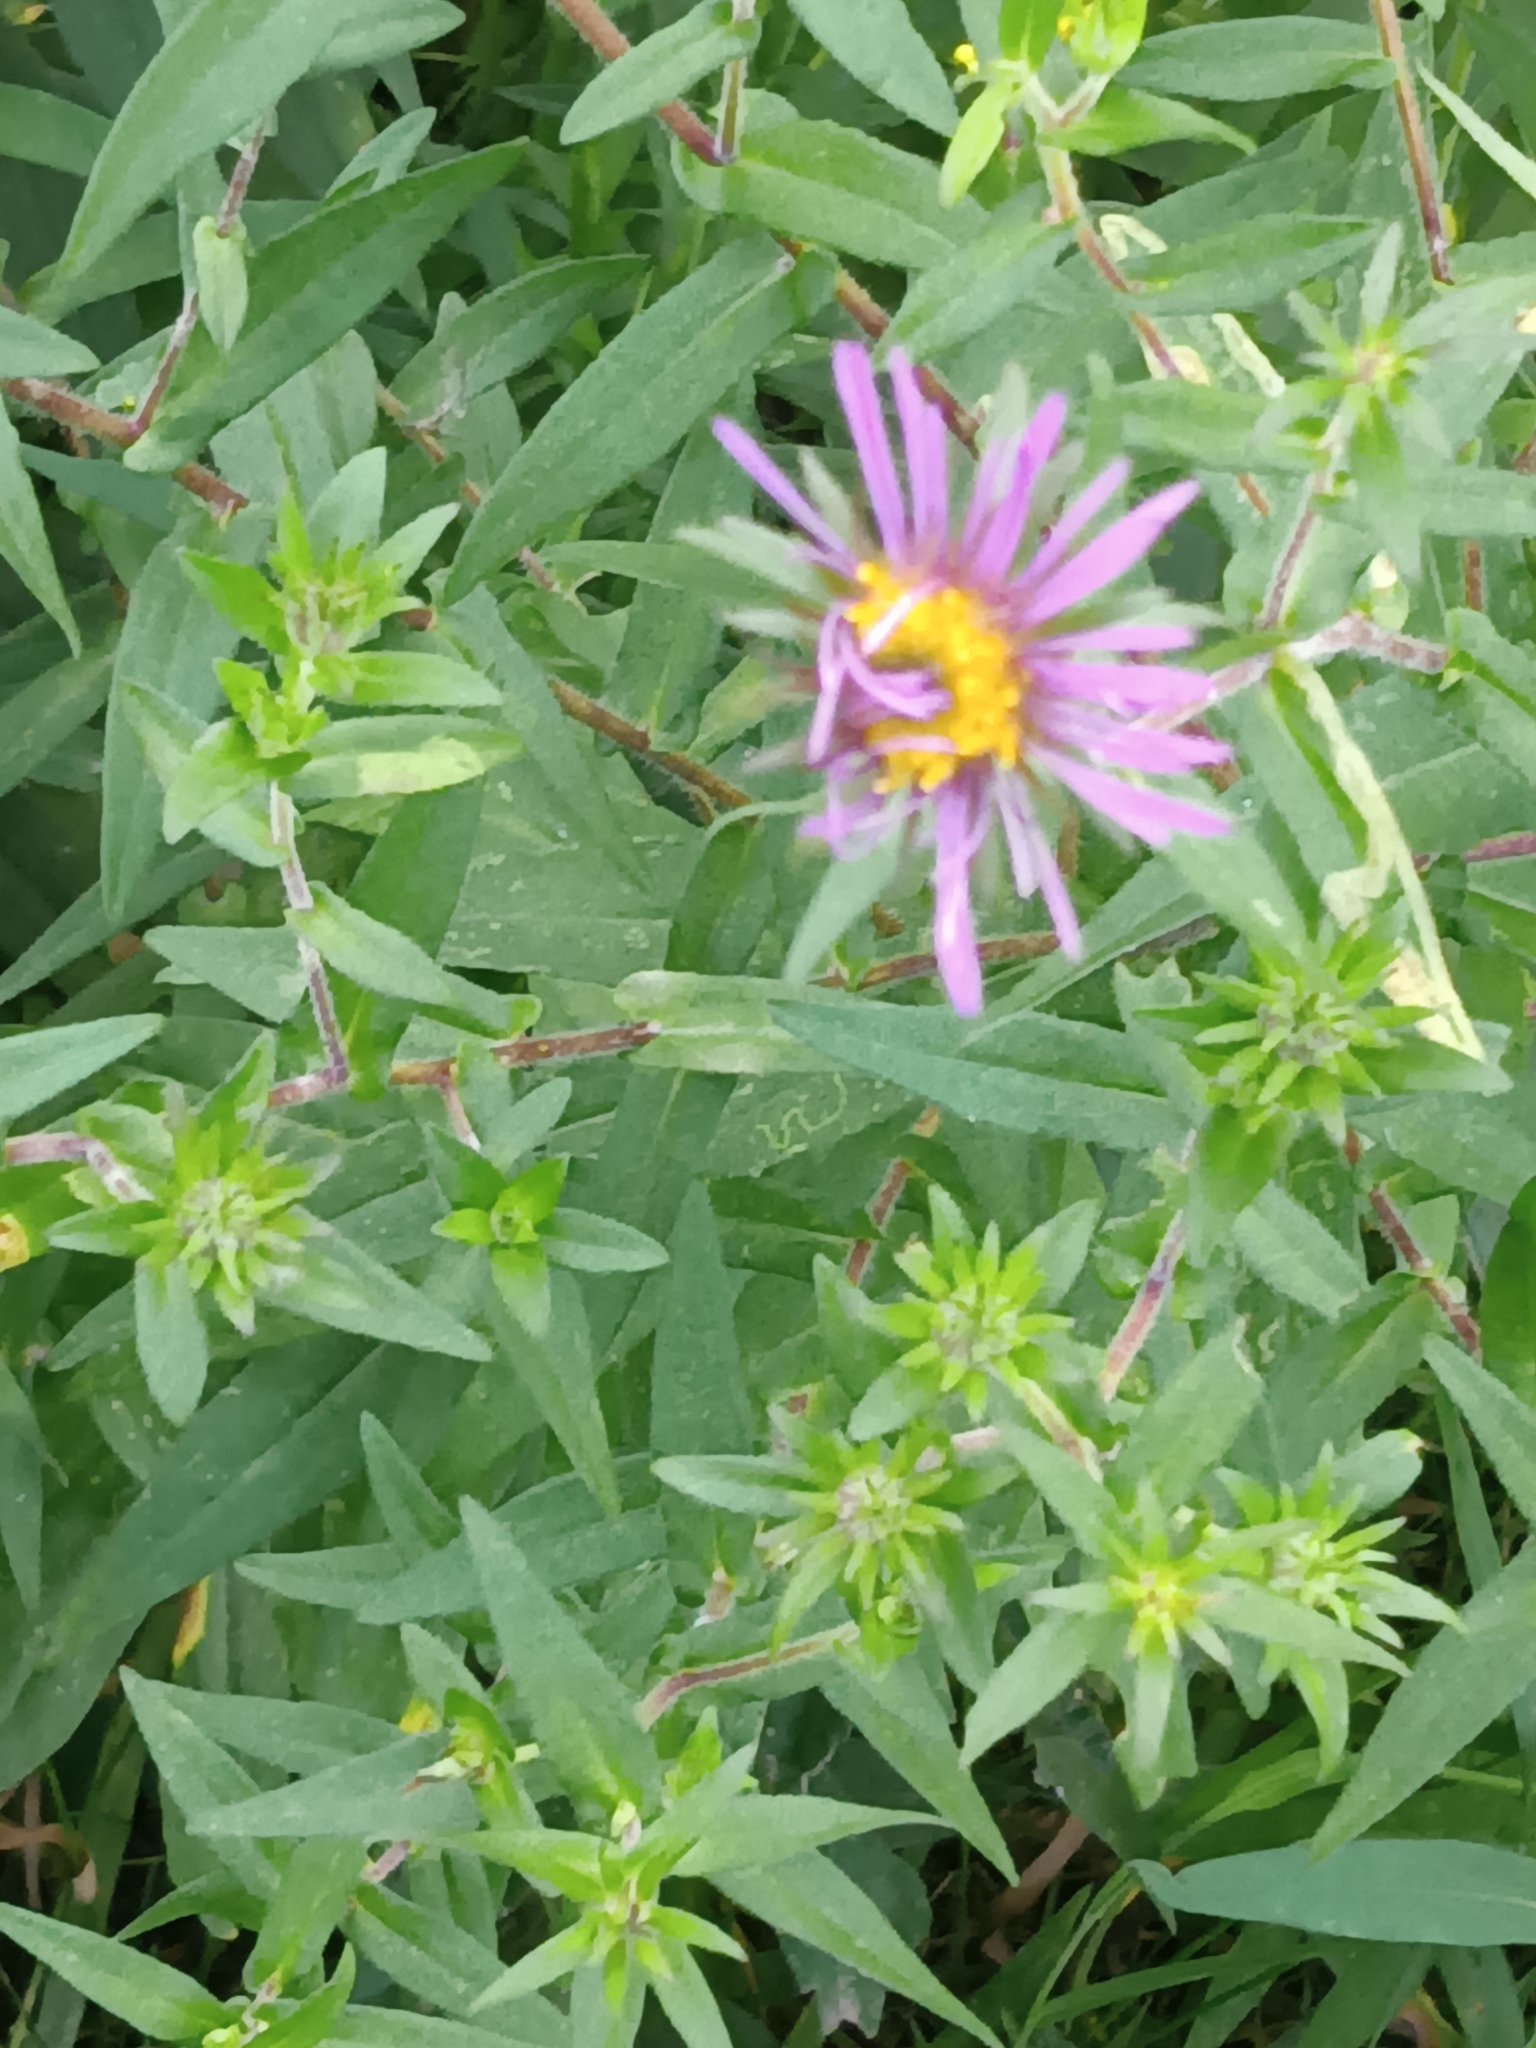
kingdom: Plantae
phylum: Tracheophyta
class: Magnoliopsida
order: Asterales
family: Asteraceae
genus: Symphyotrichum
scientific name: Symphyotrichum novae-angliae
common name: Michaelmas daisy
